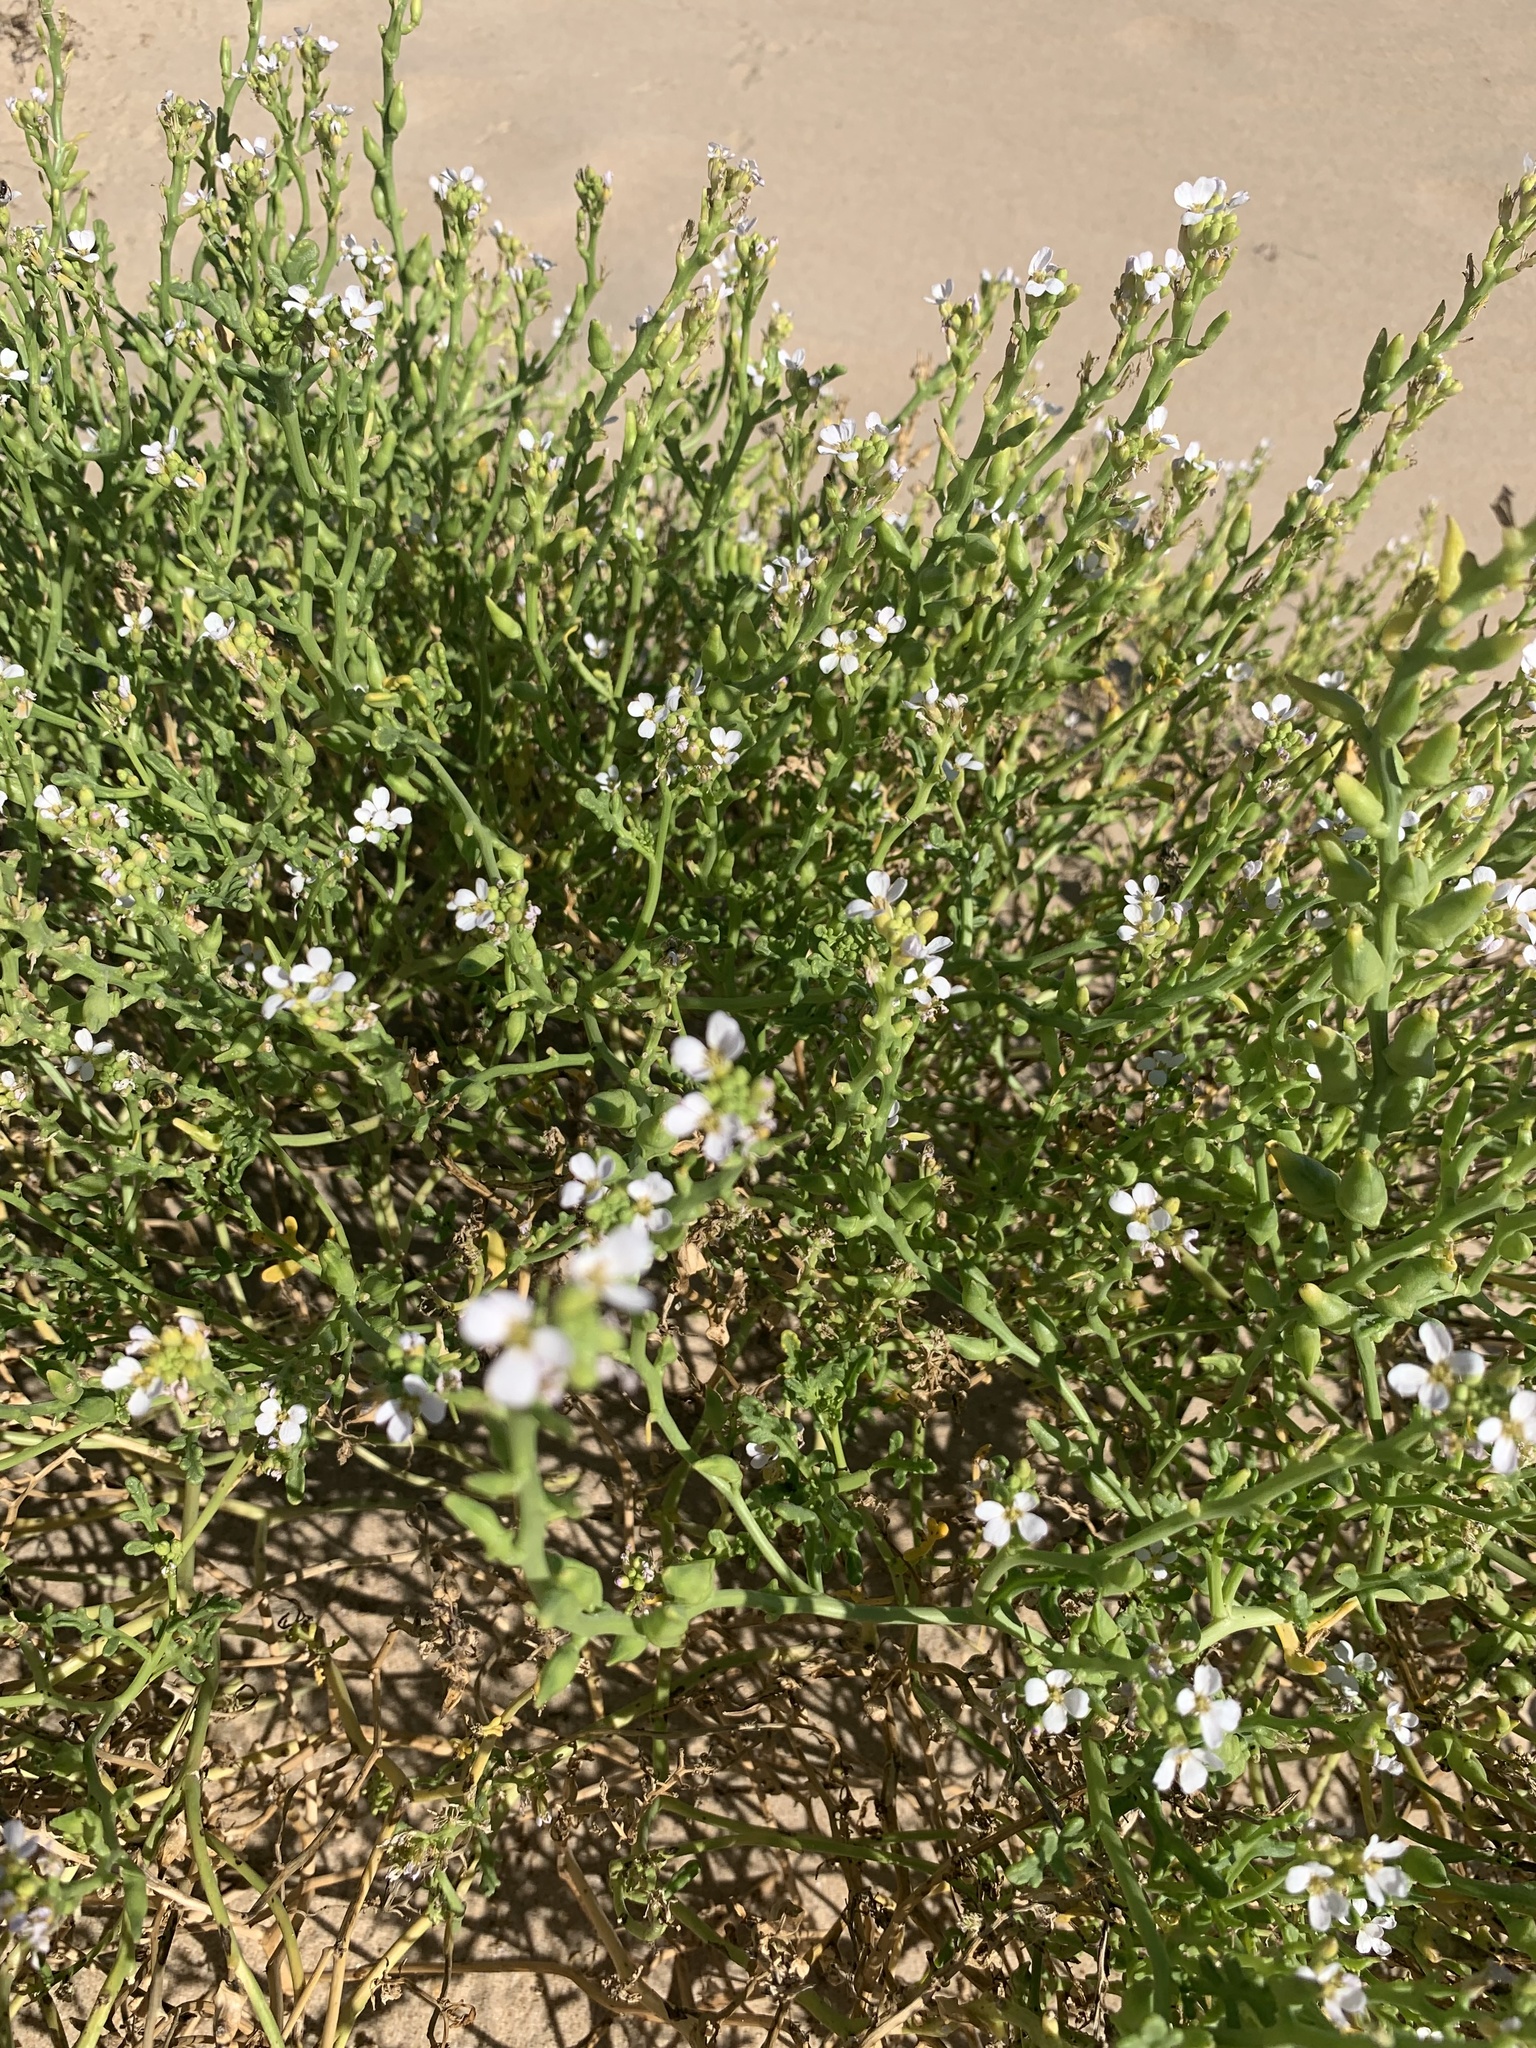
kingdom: Plantae
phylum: Tracheophyta
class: Magnoliopsida
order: Brassicales
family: Brassicaceae
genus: Cakile
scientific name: Cakile maritima
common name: Sea rocket
